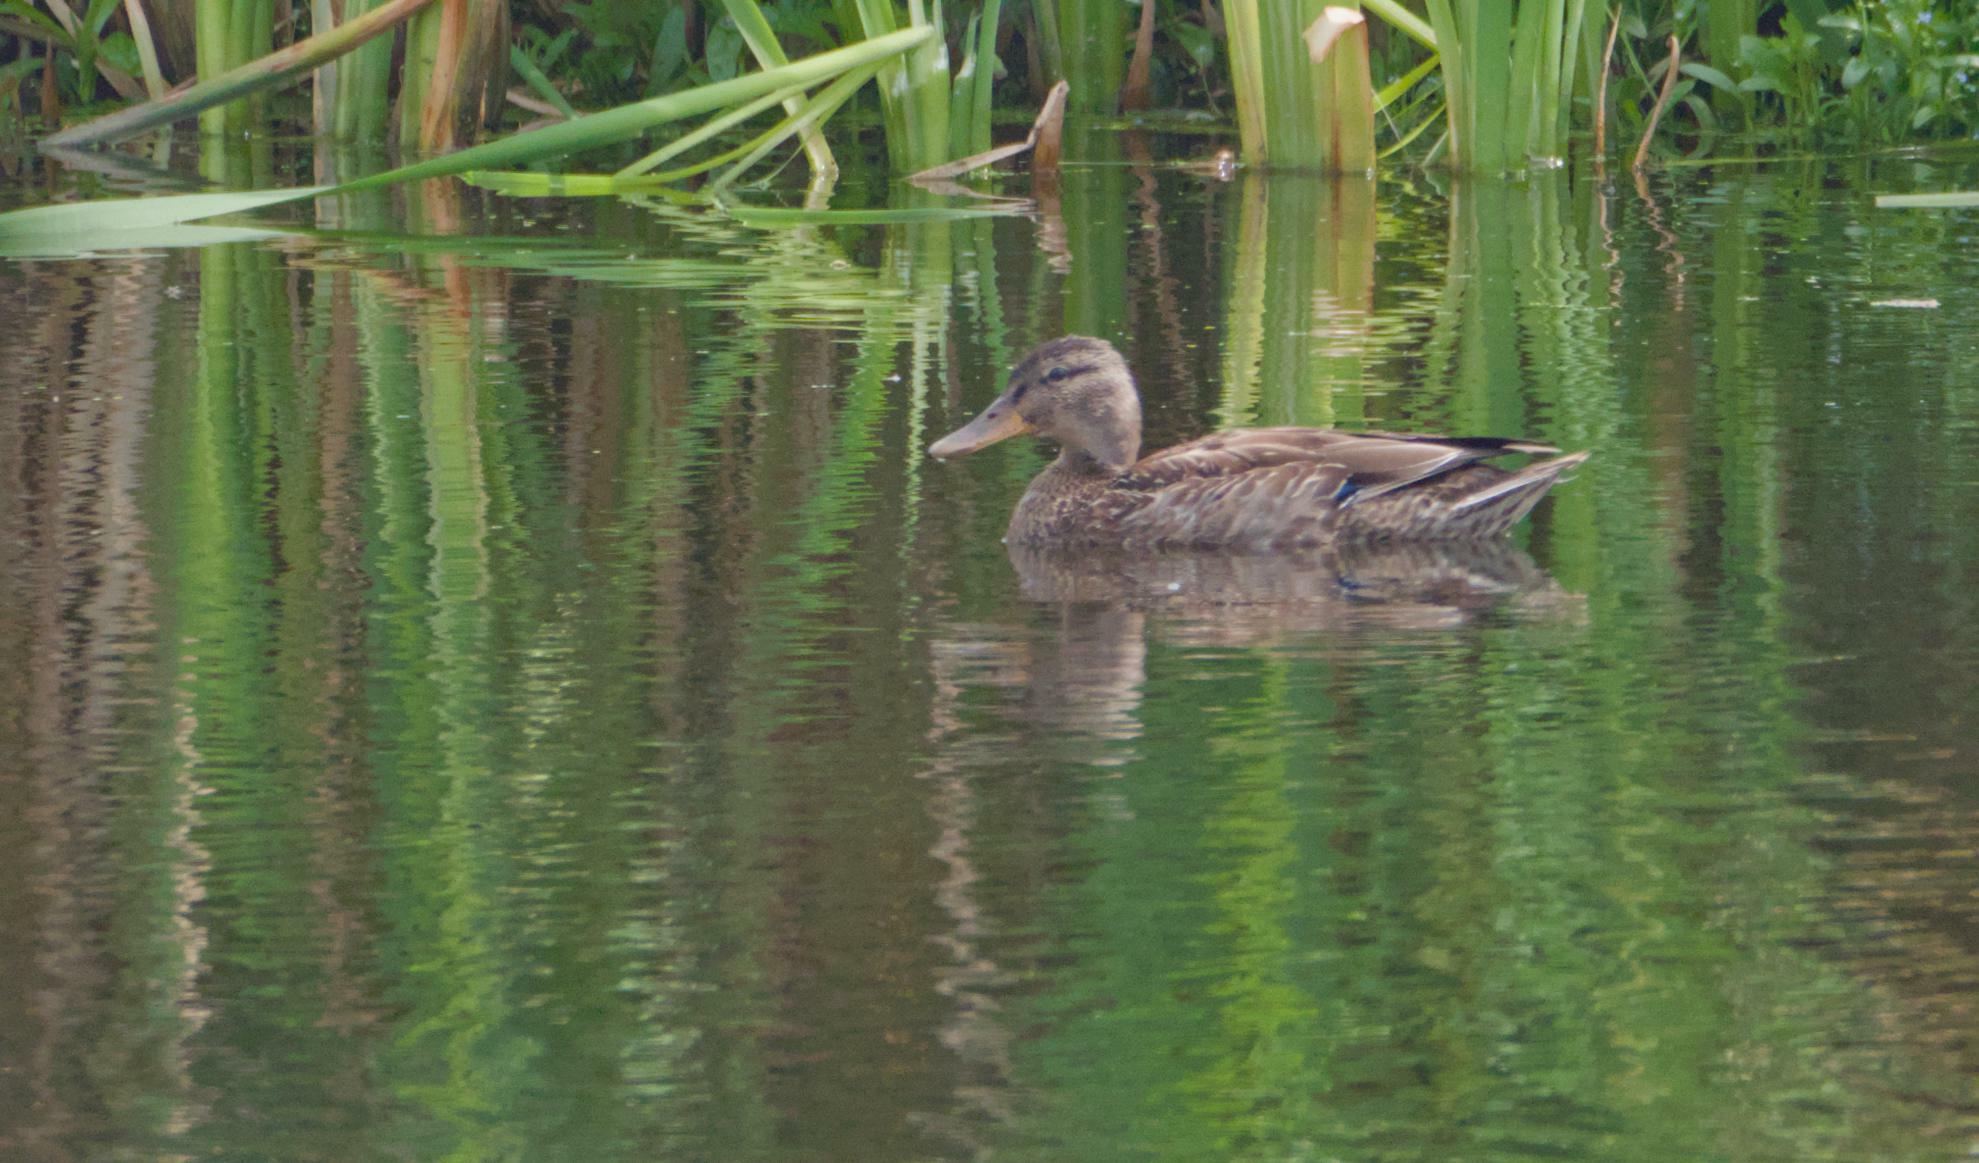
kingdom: Animalia
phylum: Chordata
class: Aves
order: Anseriformes
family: Anatidae
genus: Anas
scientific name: Anas platyrhynchos
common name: Mallard
